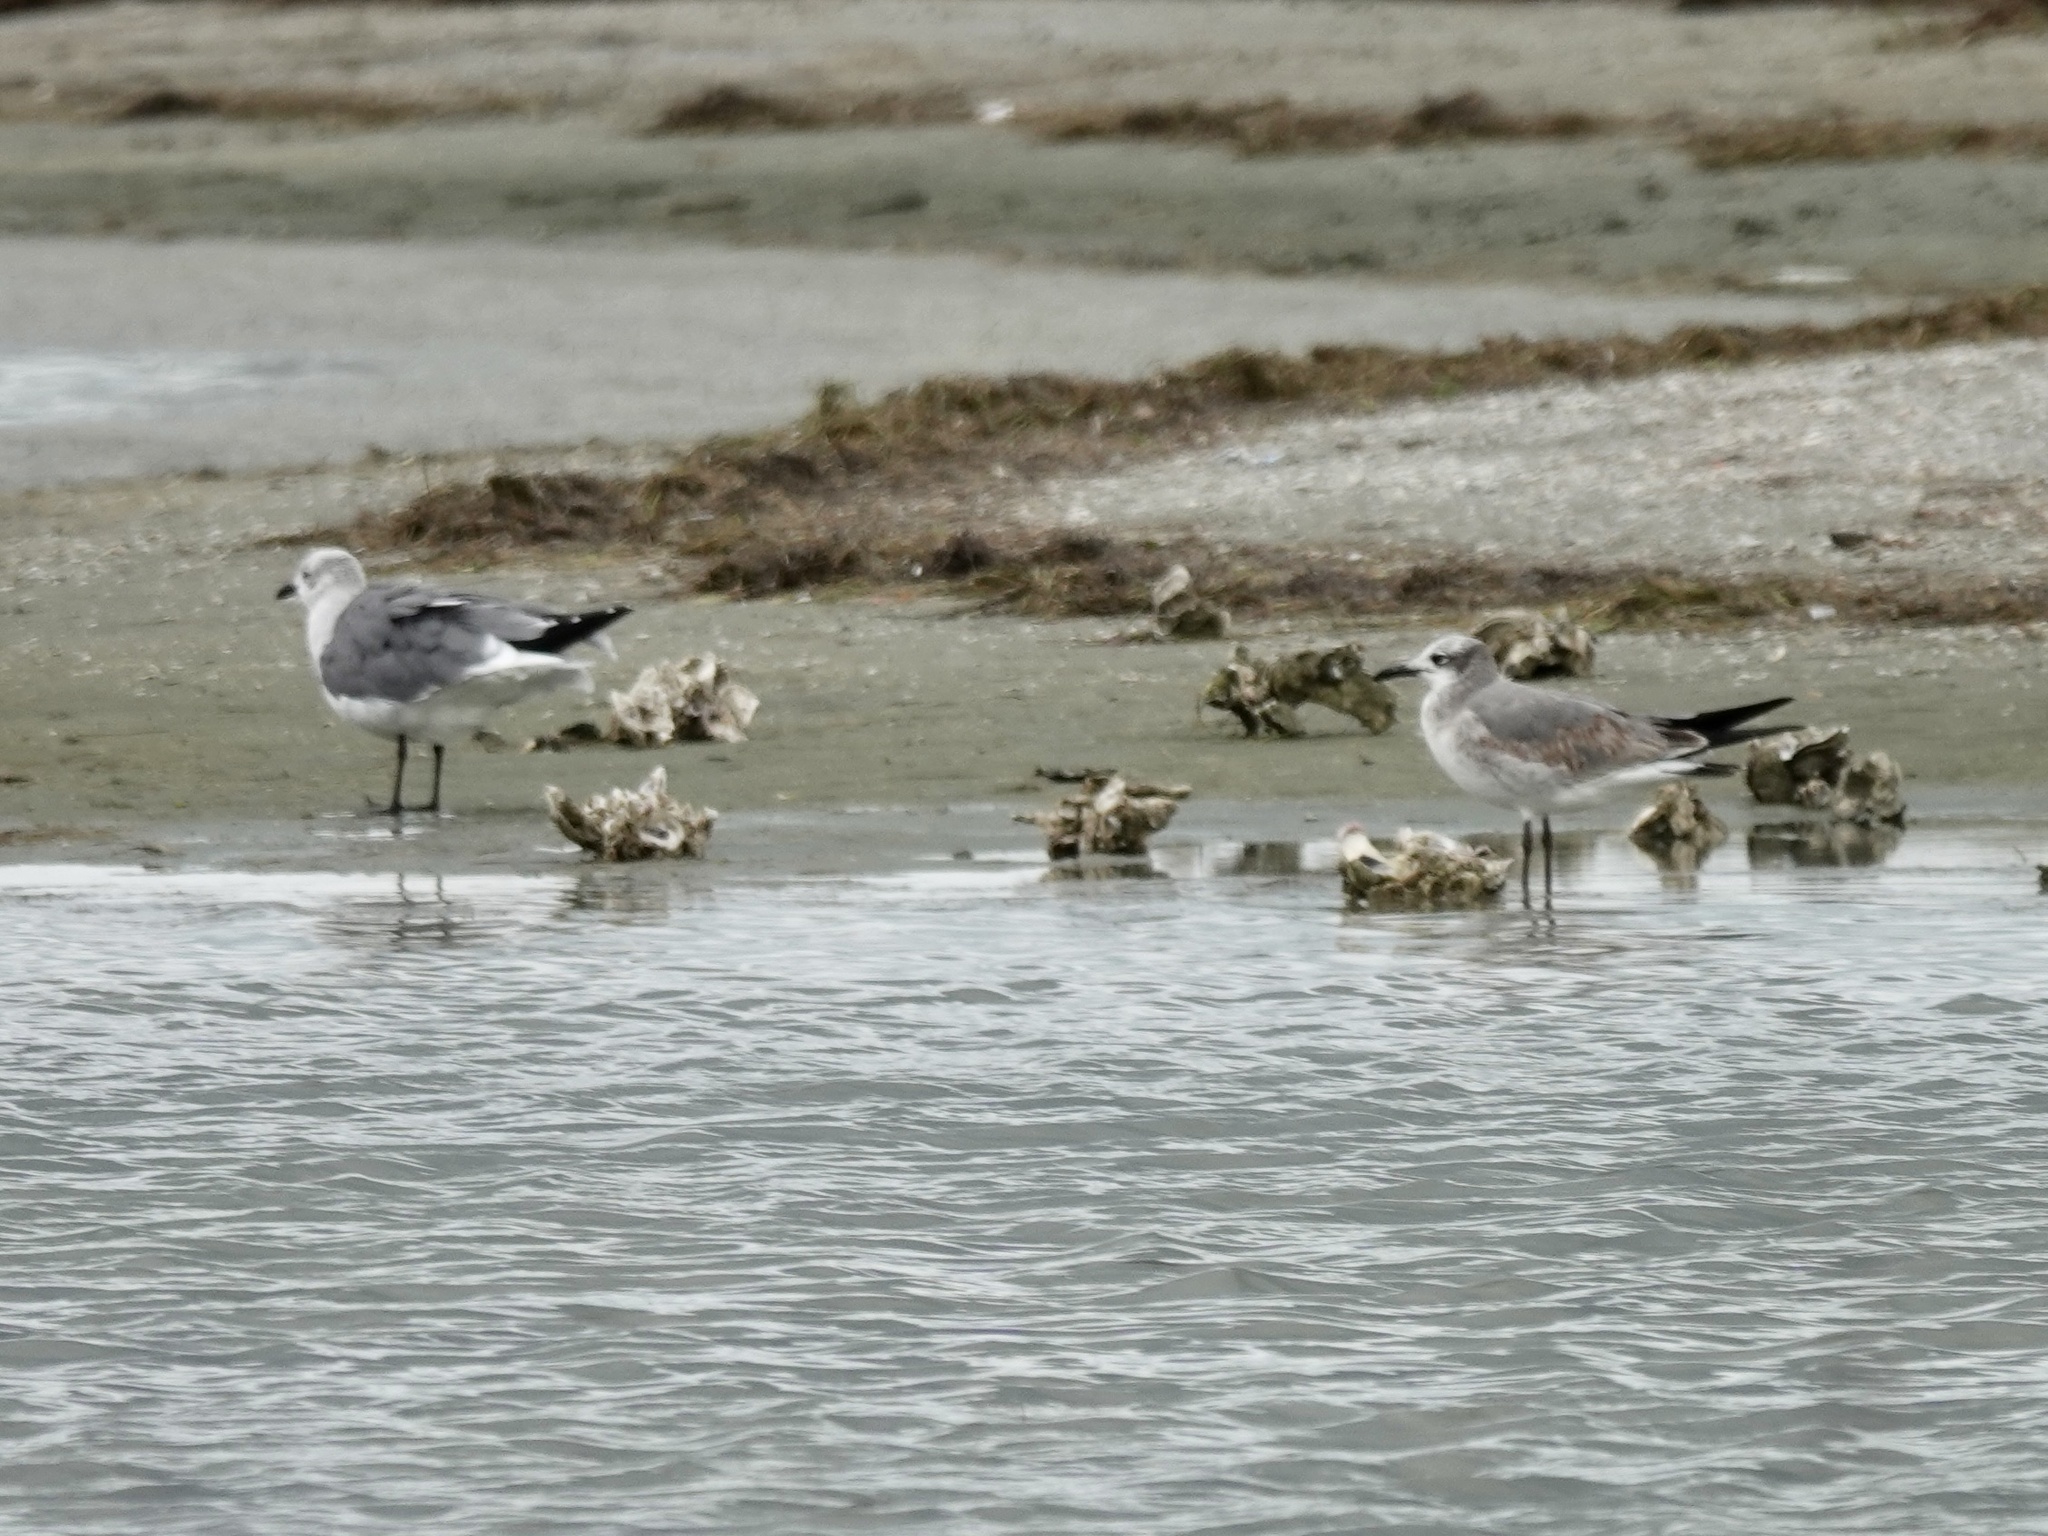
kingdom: Animalia
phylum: Chordata
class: Aves
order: Charadriiformes
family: Laridae
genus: Leucophaeus
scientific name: Leucophaeus atricilla
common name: Laughing gull
